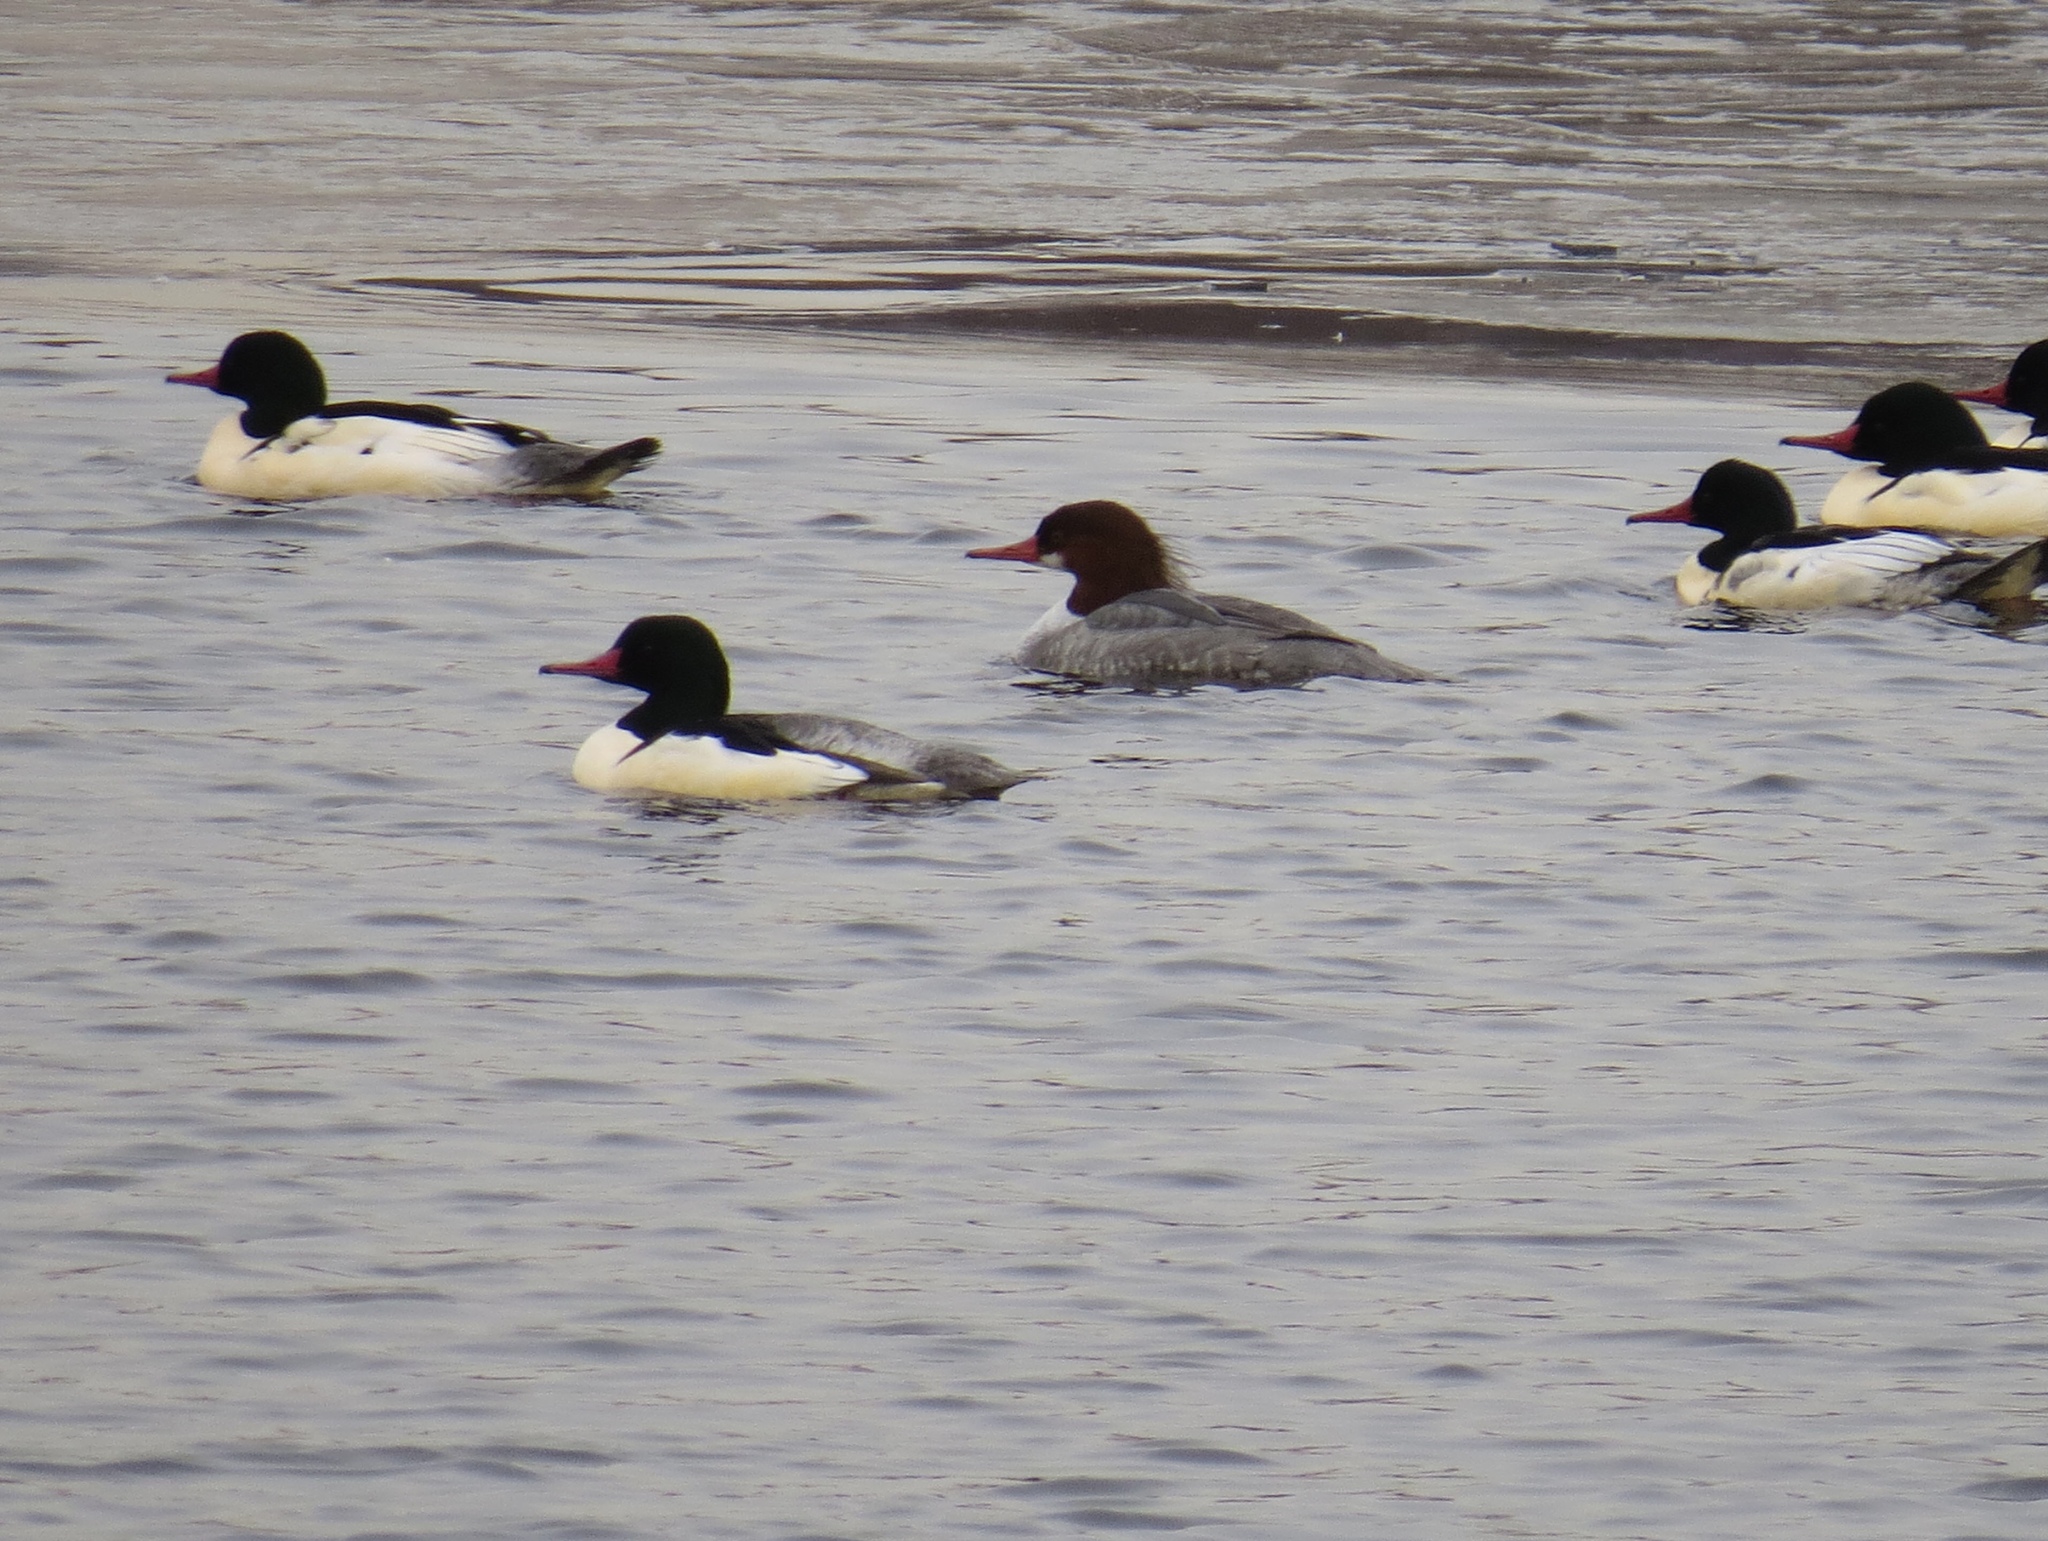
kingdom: Animalia
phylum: Chordata
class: Aves
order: Anseriformes
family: Anatidae
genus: Mergus
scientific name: Mergus merganser
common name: Common merganser
